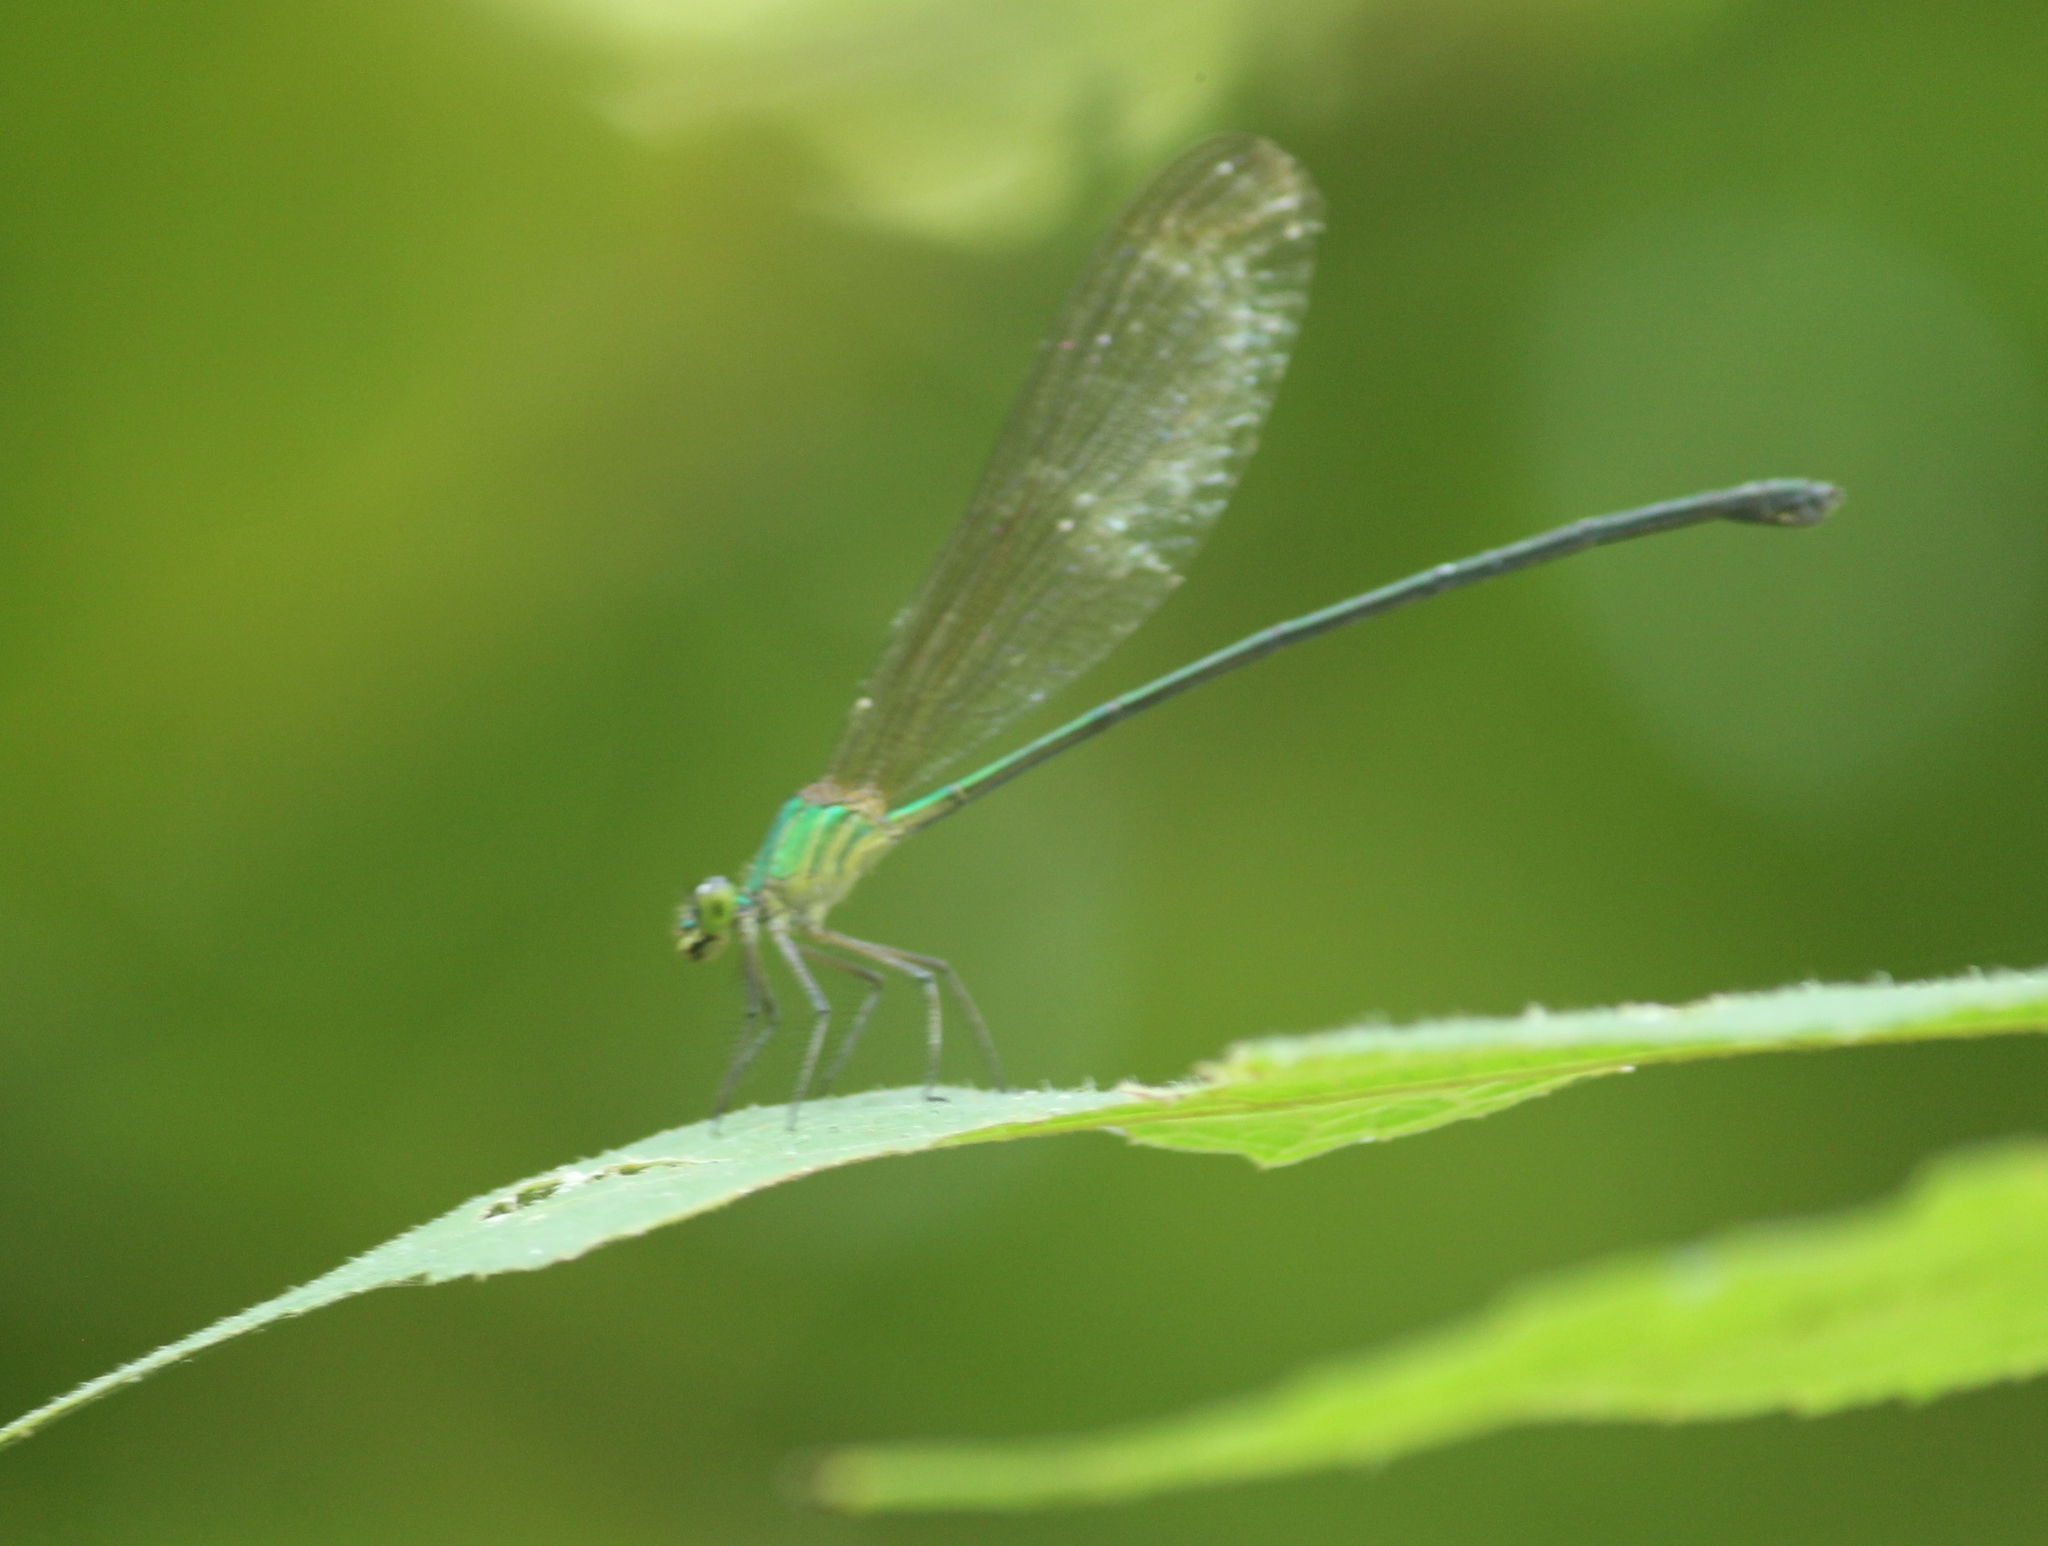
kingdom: Animalia
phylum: Arthropoda
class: Insecta
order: Odonata
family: Calopterygidae
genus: Vestalis
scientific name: Vestalis gracilis
